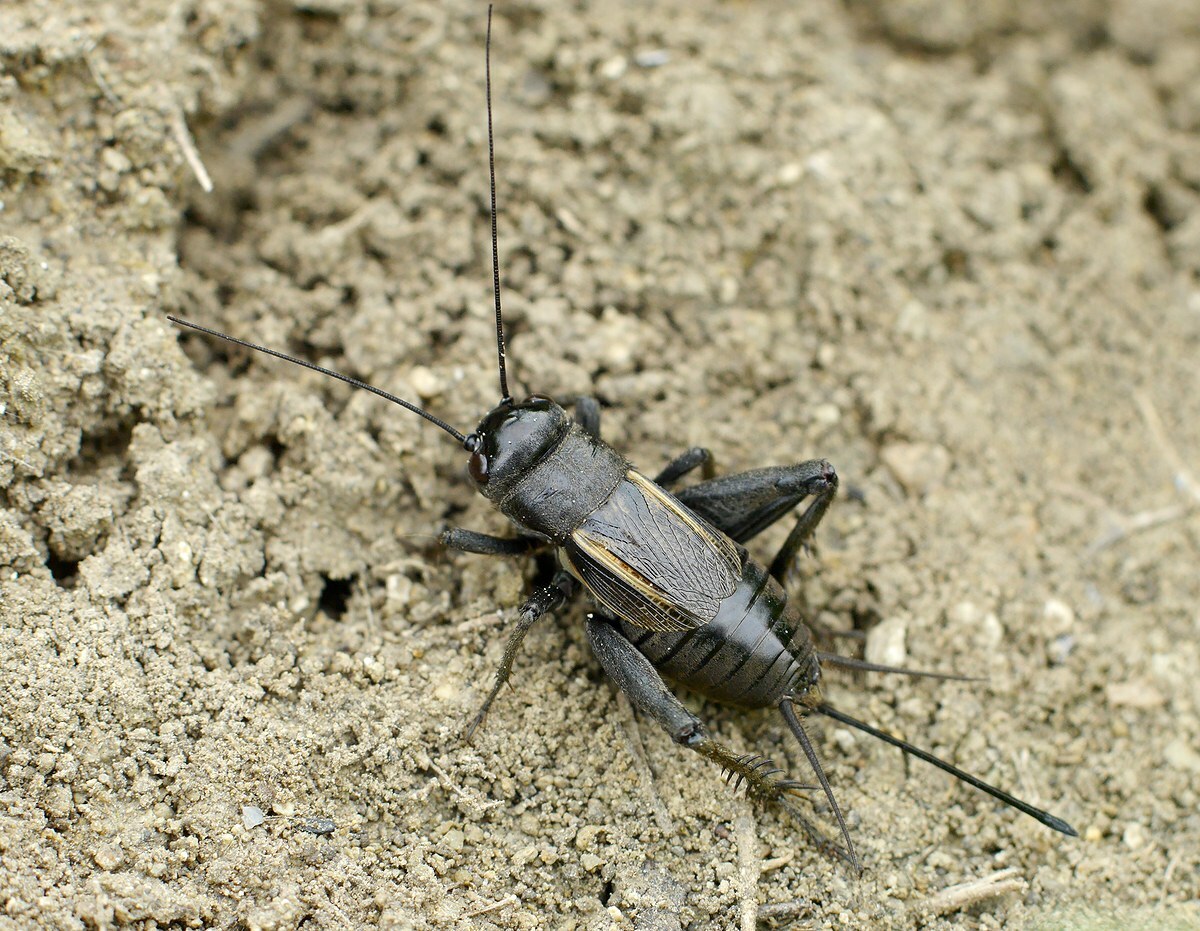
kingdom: Animalia
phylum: Arthropoda
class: Insecta
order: Orthoptera
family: Gryllidae
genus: Melanogryllus
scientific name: Melanogryllus desertus
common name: Desert cricket
